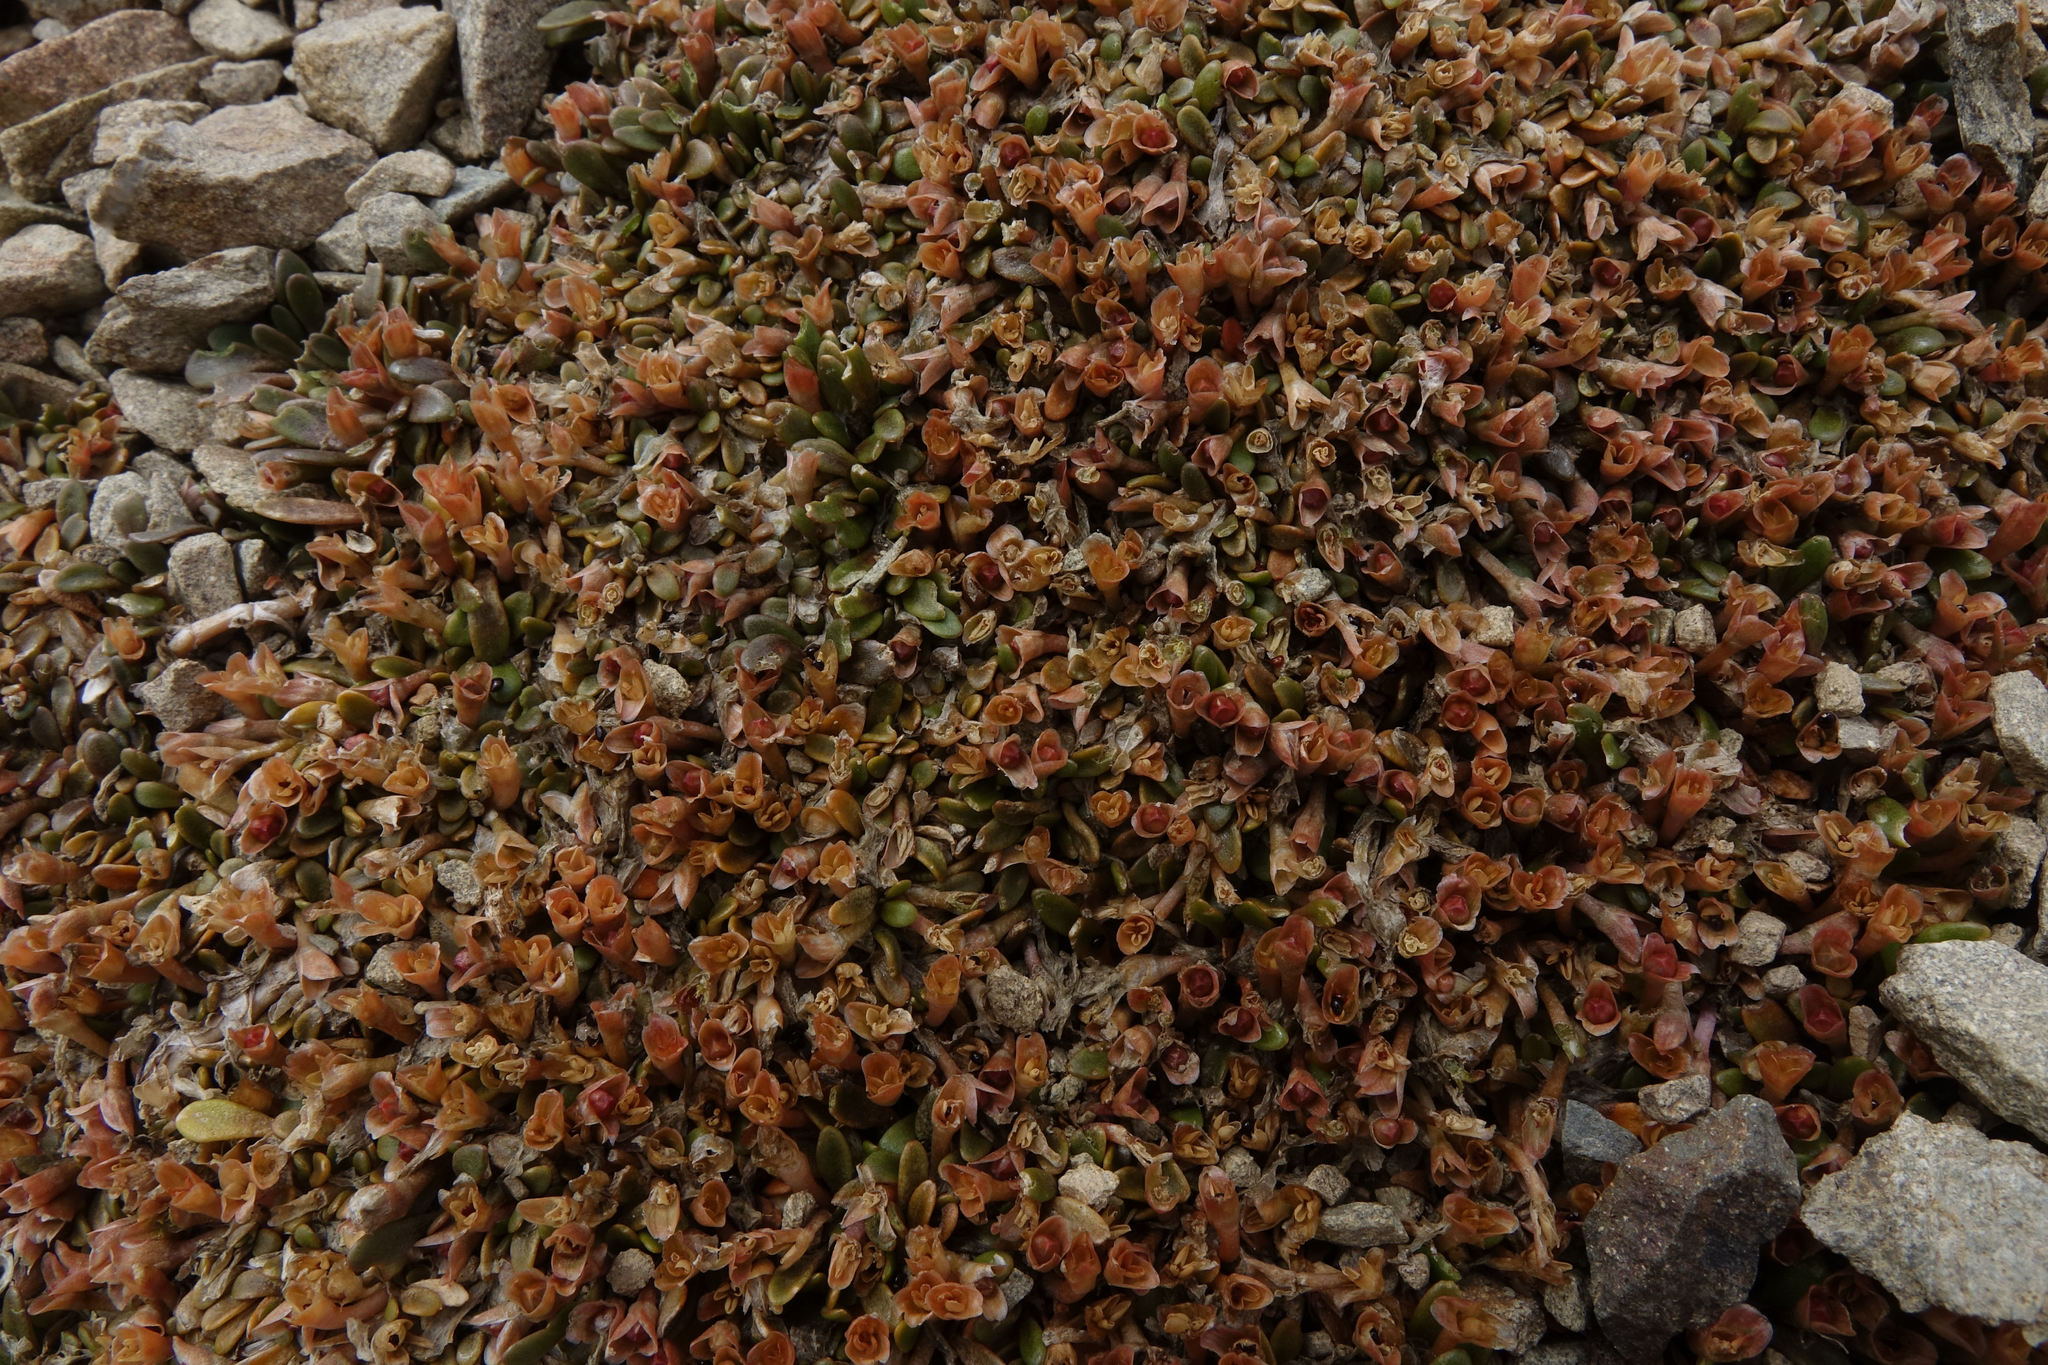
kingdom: Plantae
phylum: Tracheophyta
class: Magnoliopsida
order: Caryophyllales
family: Montiaceae
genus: Montia
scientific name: Montia sessiliflora
